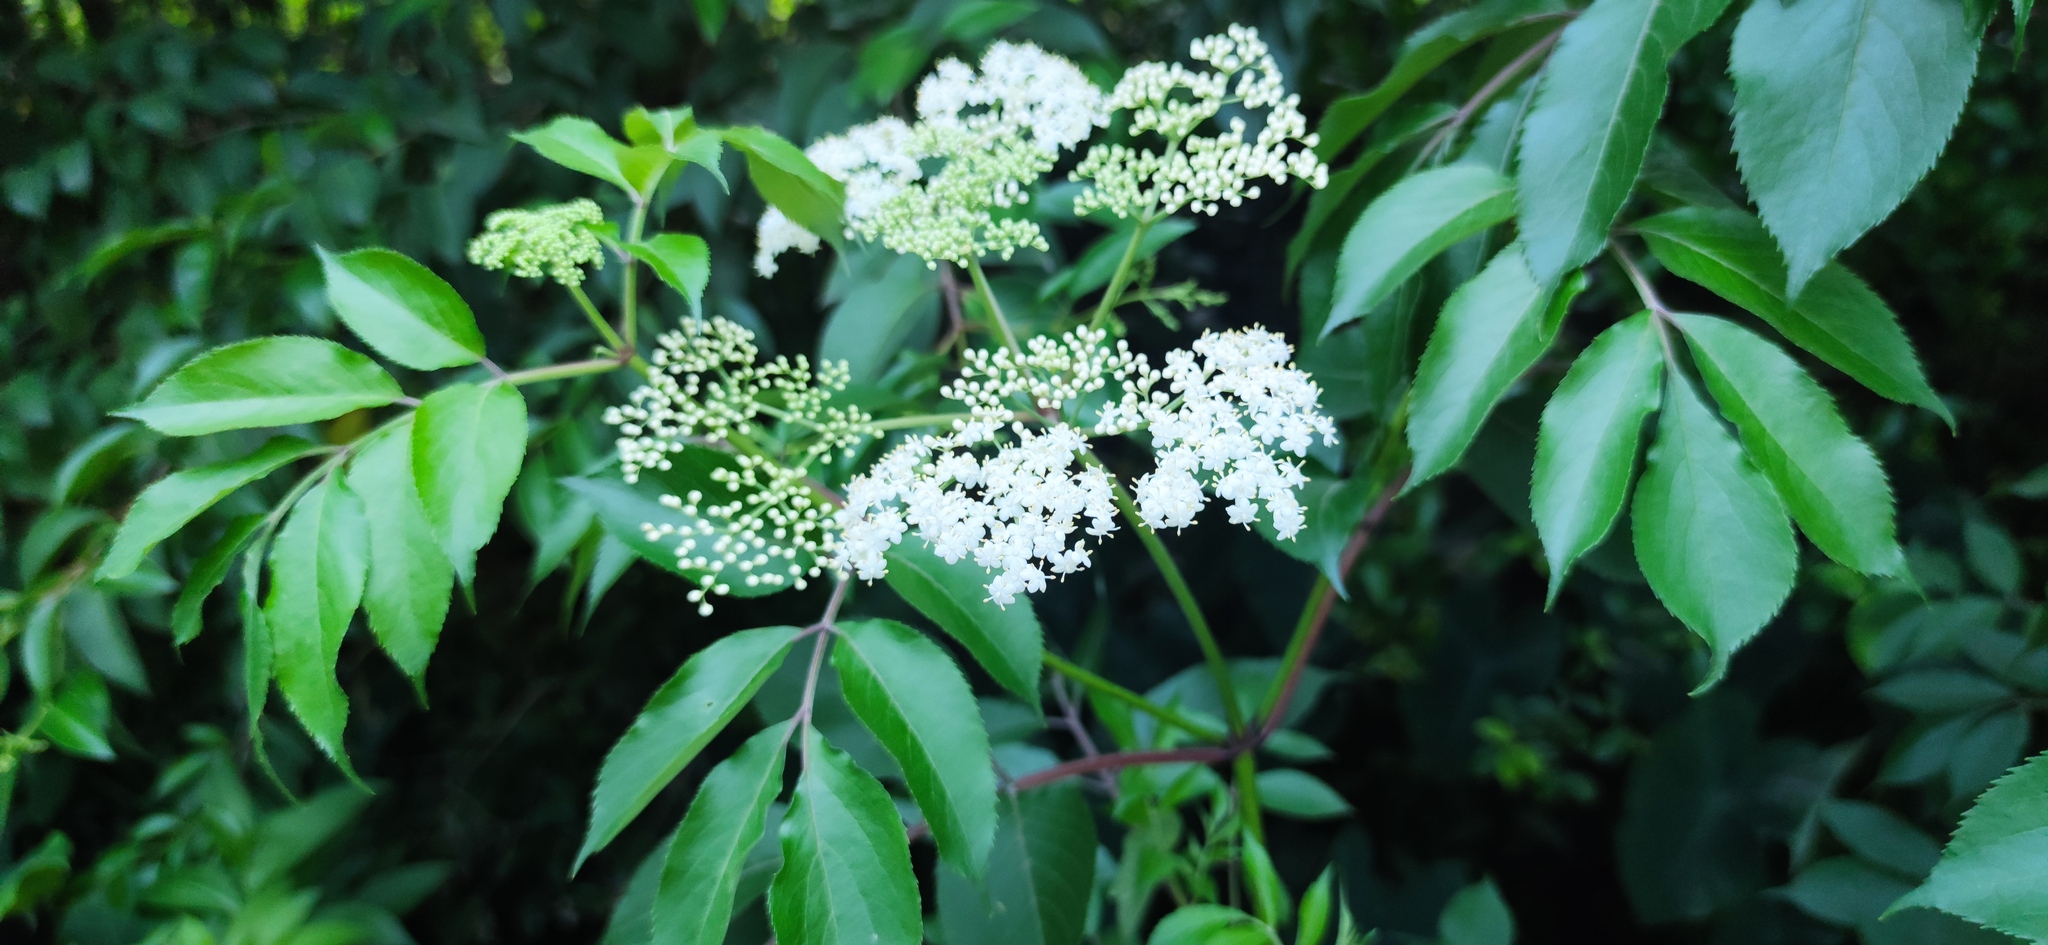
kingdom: Plantae
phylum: Tracheophyta
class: Magnoliopsida
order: Dipsacales
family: Viburnaceae
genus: Sambucus
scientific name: Sambucus canadensis
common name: American elder
